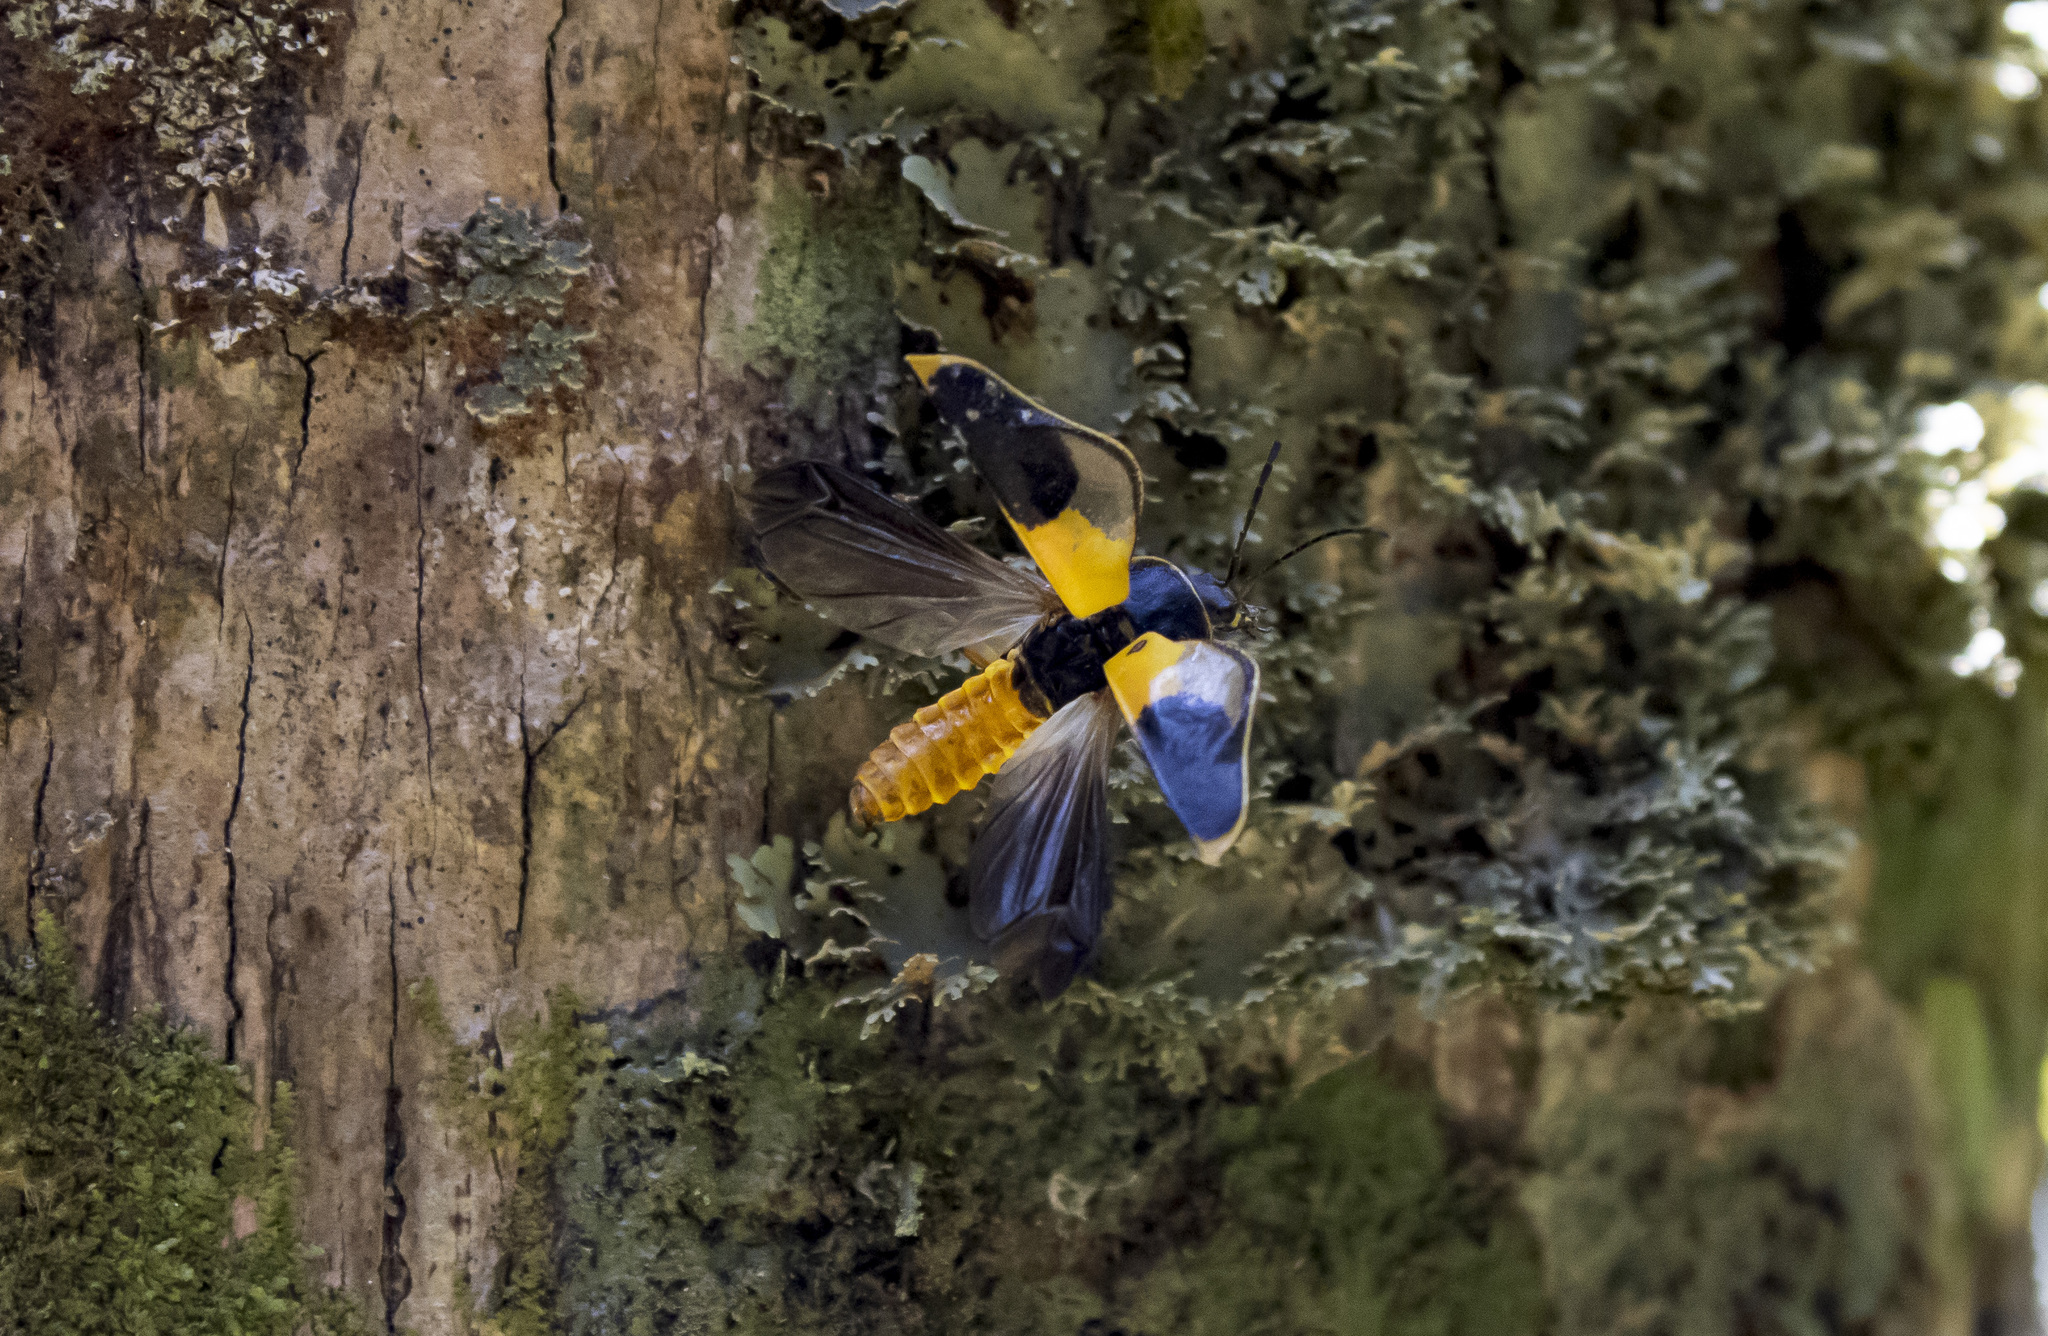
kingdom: Animalia
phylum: Arthropoda
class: Insecta
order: Coleoptera
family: Cantharidae
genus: Chauliognathus
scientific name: Chauliognathus
